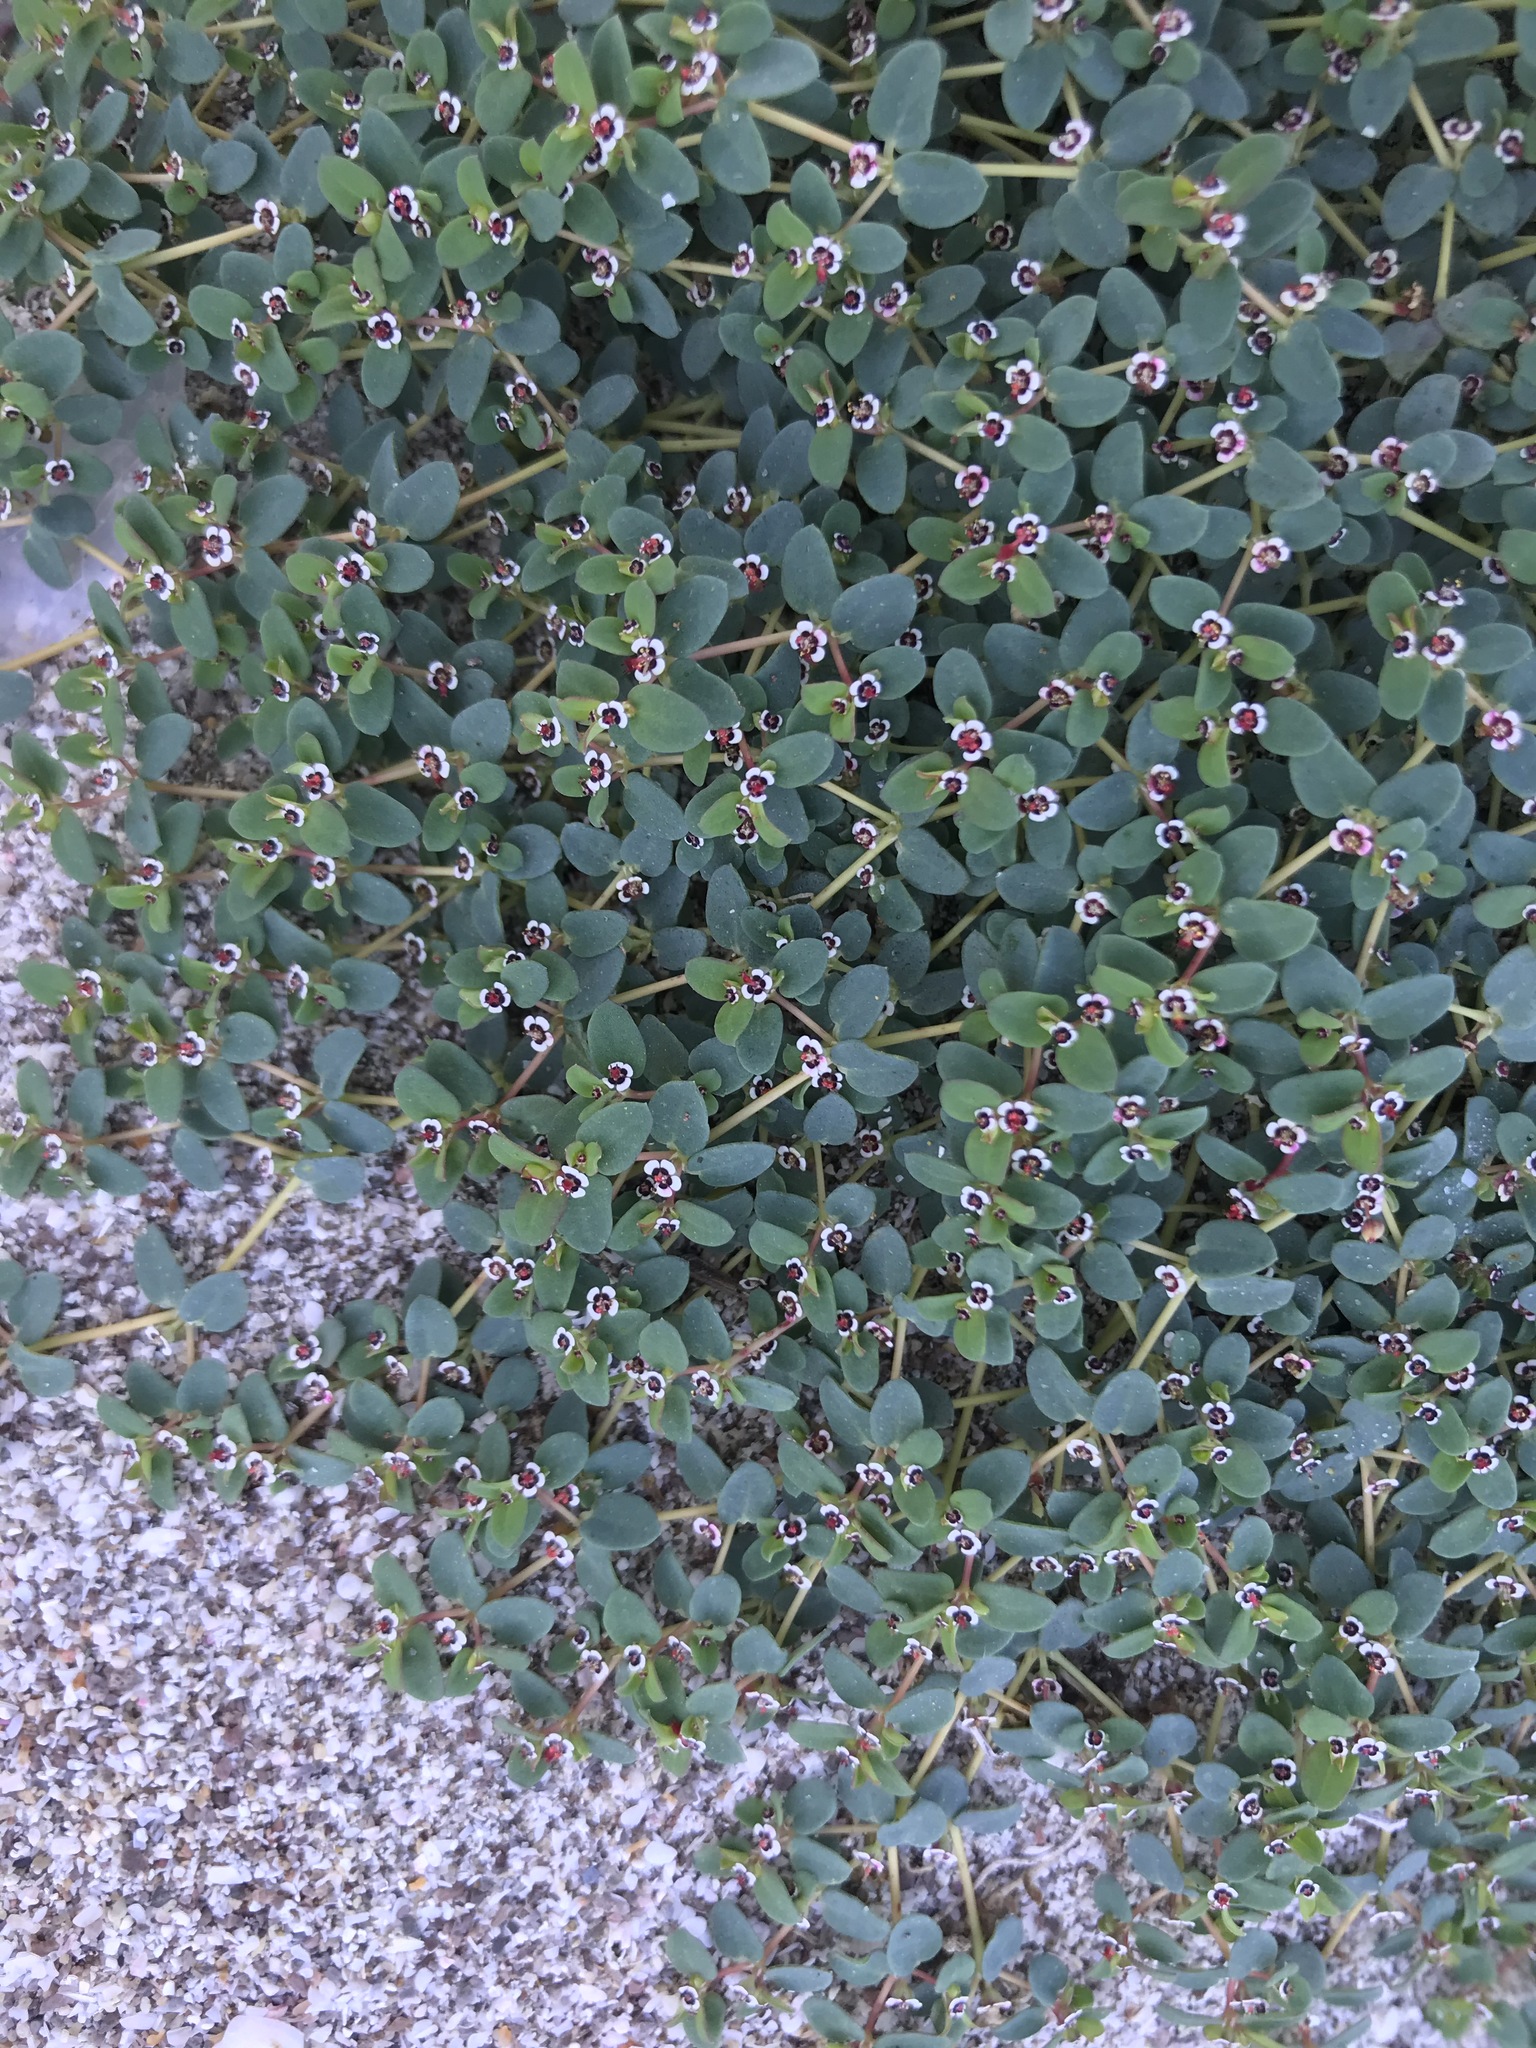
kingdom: Plantae
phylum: Tracheophyta
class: Magnoliopsida
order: Malpighiales
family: Euphorbiaceae
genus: Euphorbia
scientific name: Euphorbia polycarpa
